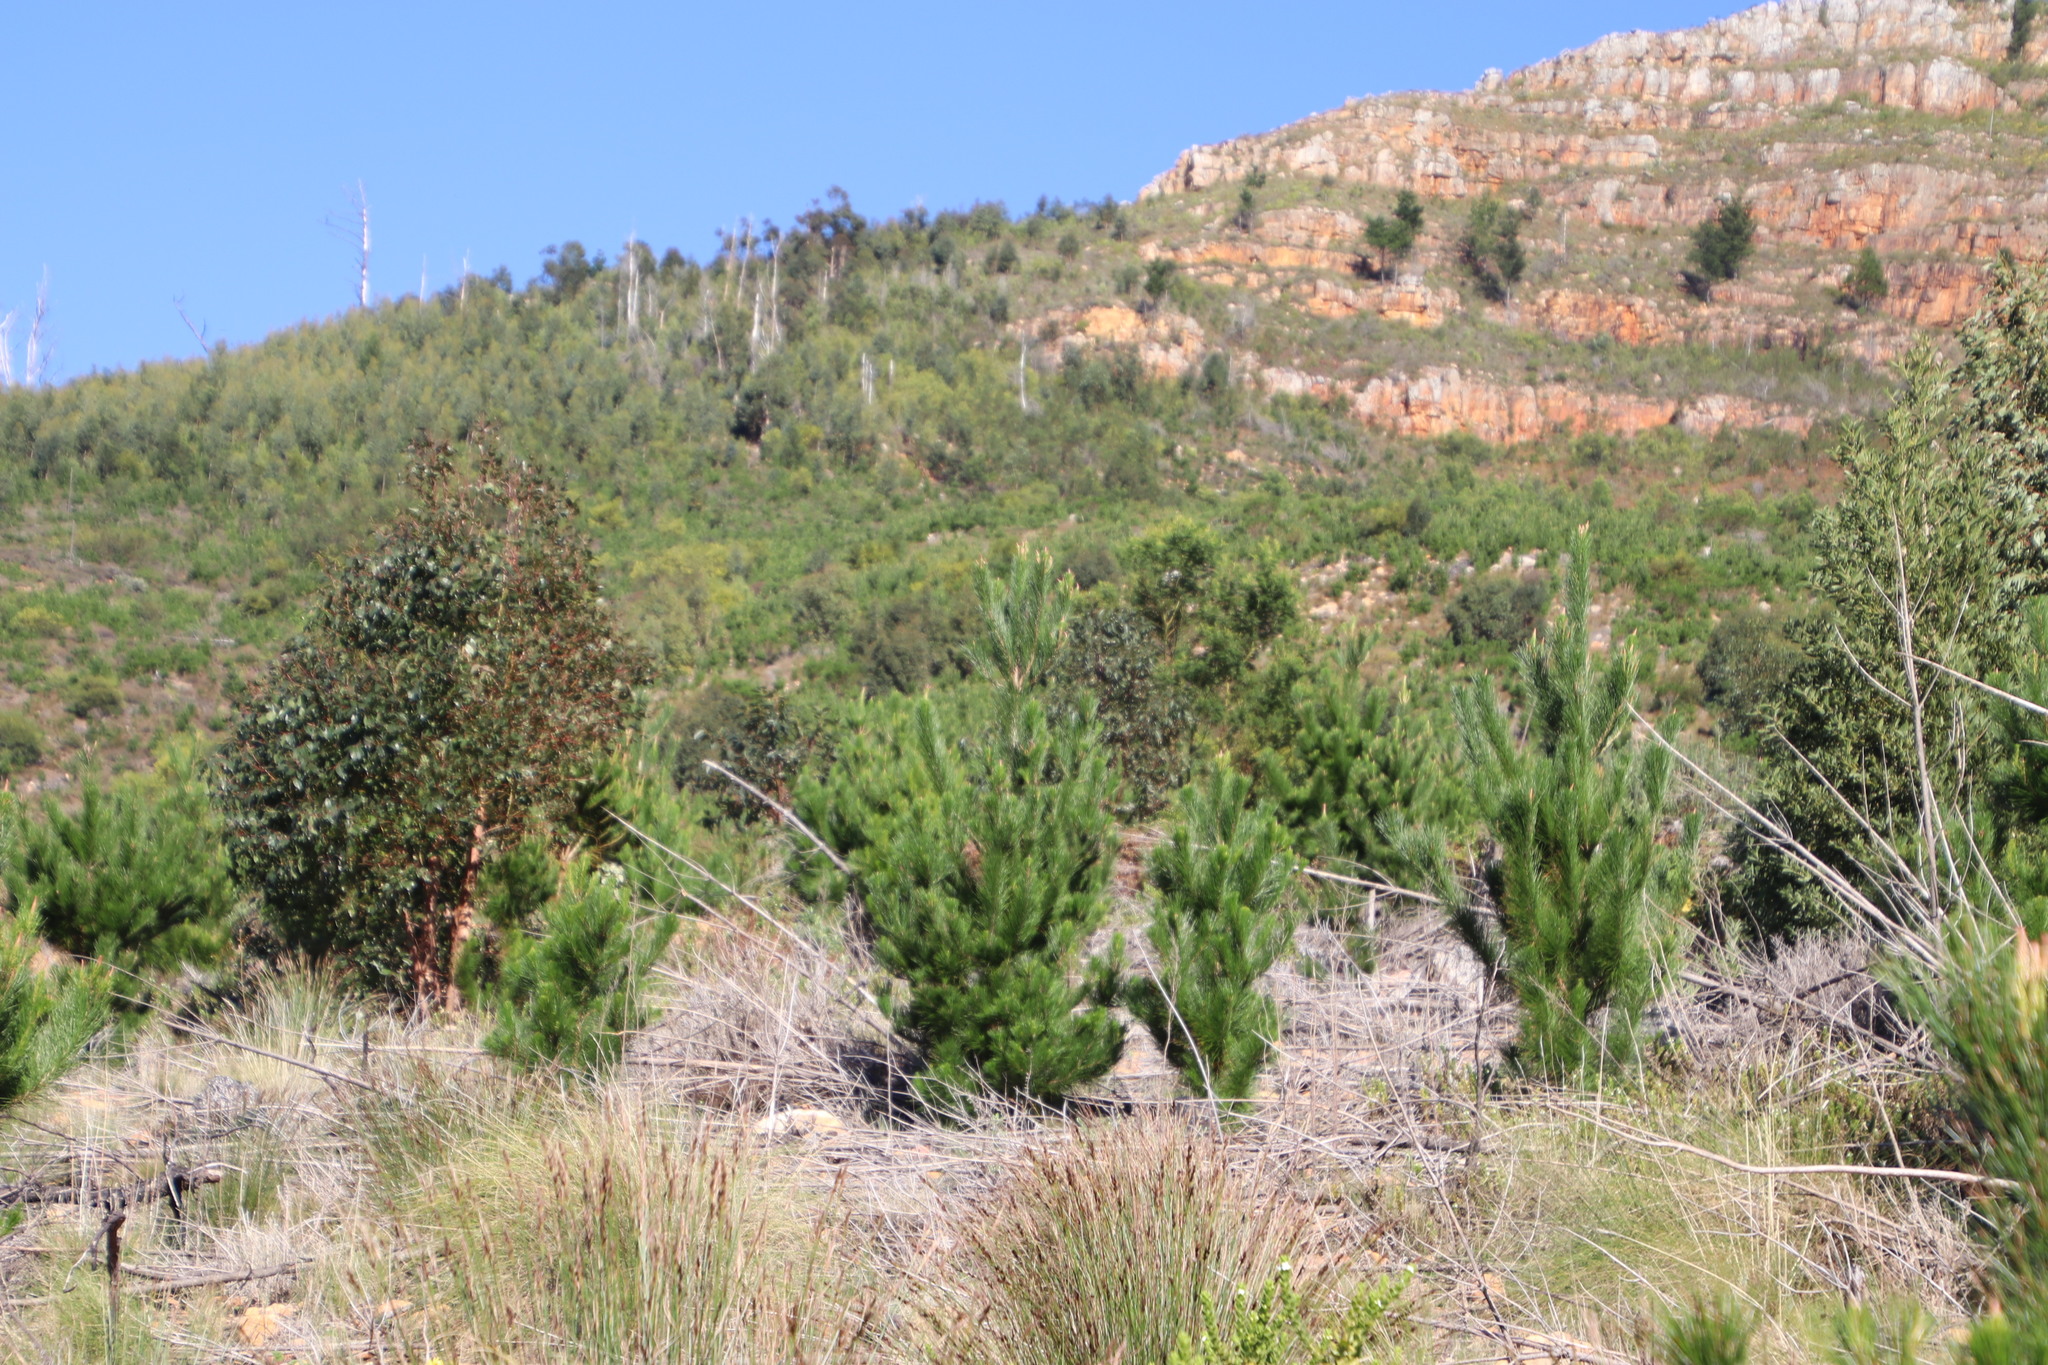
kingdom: Plantae
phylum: Tracheophyta
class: Pinopsida
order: Pinales
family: Pinaceae
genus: Pinus
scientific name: Pinus radiata
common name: Monterey pine
